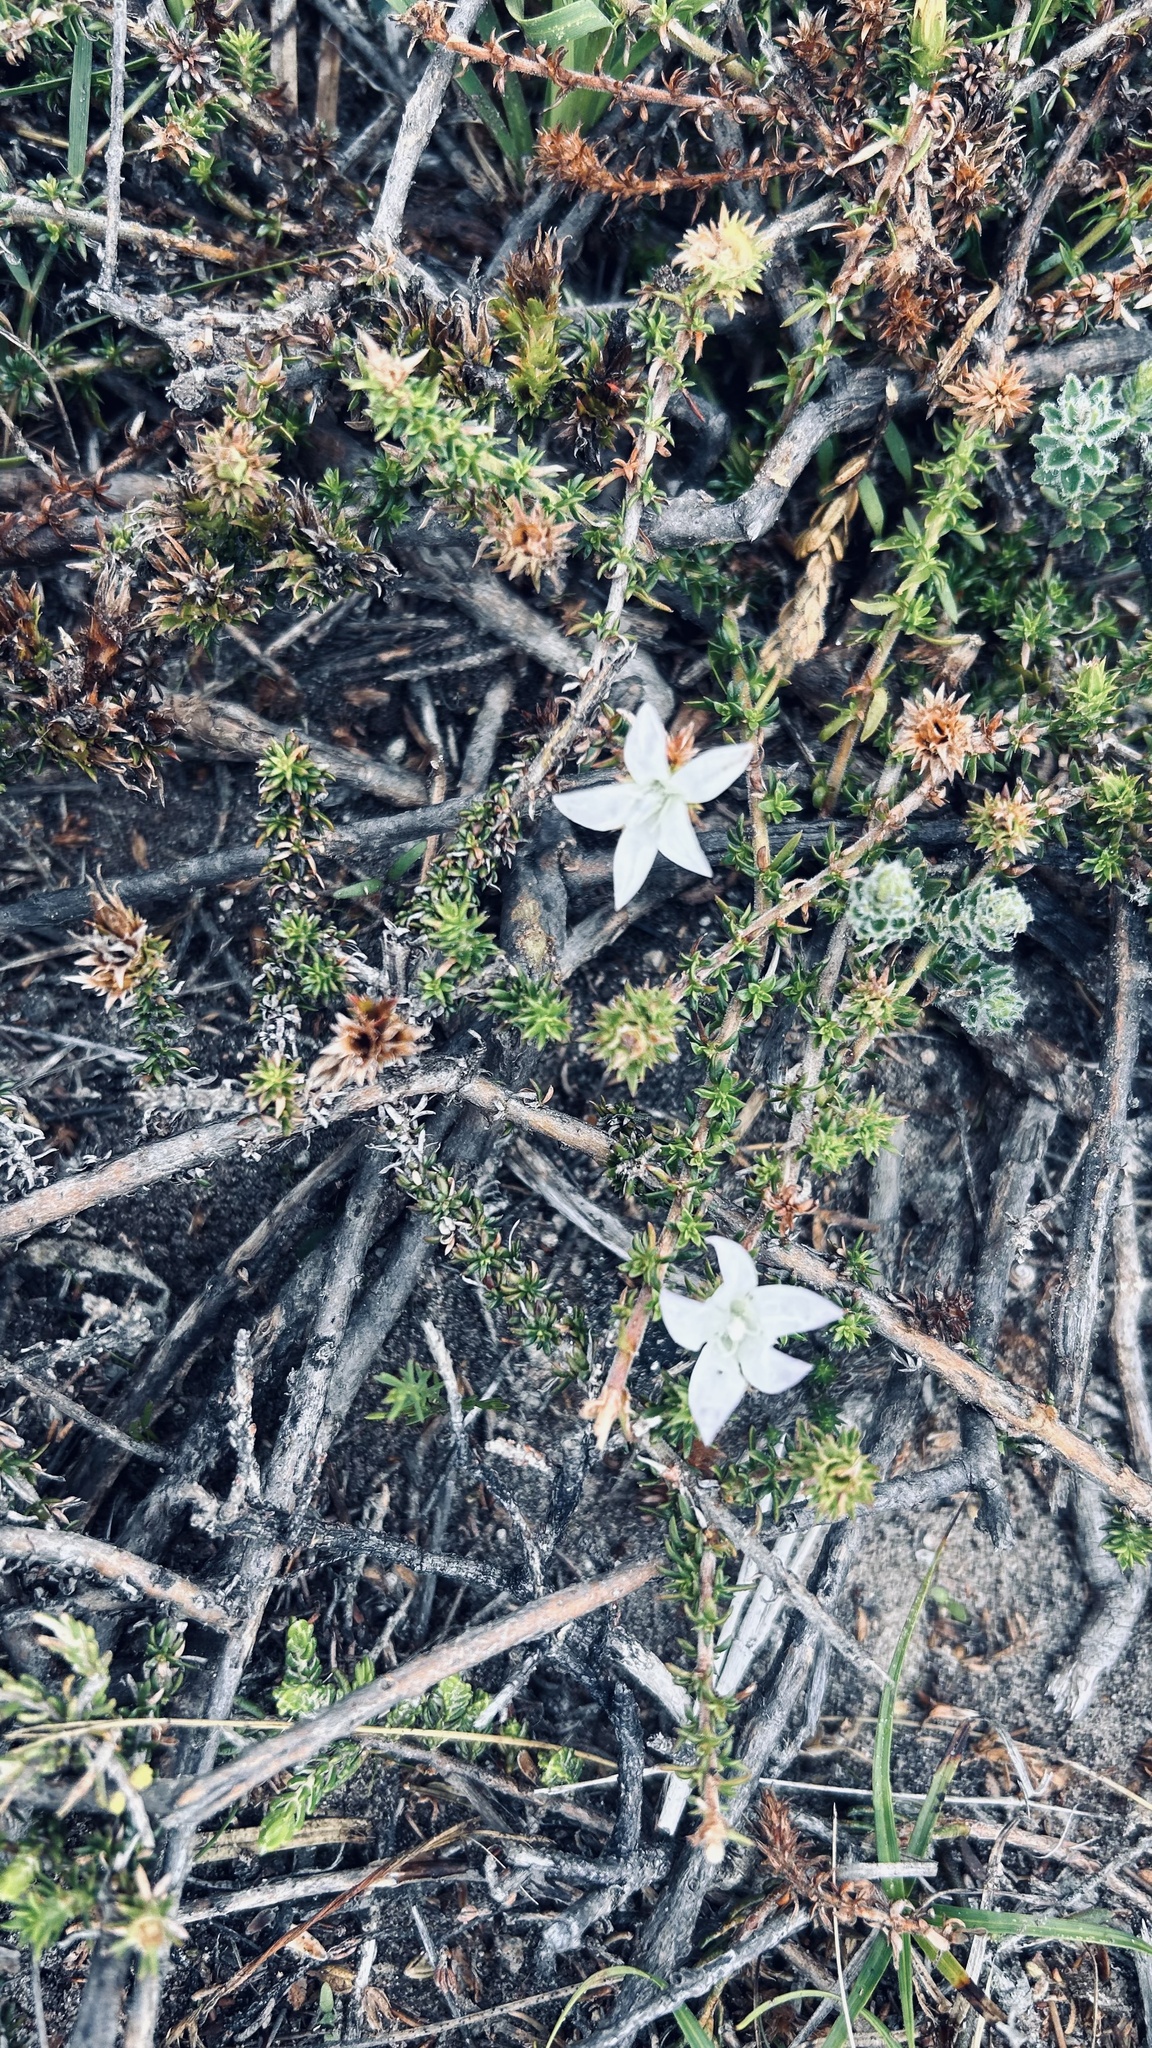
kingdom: Plantae
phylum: Tracheophyta
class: Magnoliopsida
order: Asterales
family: Campanulaceae
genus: Wahlenbergia
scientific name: Wahlenbergia calcarea
